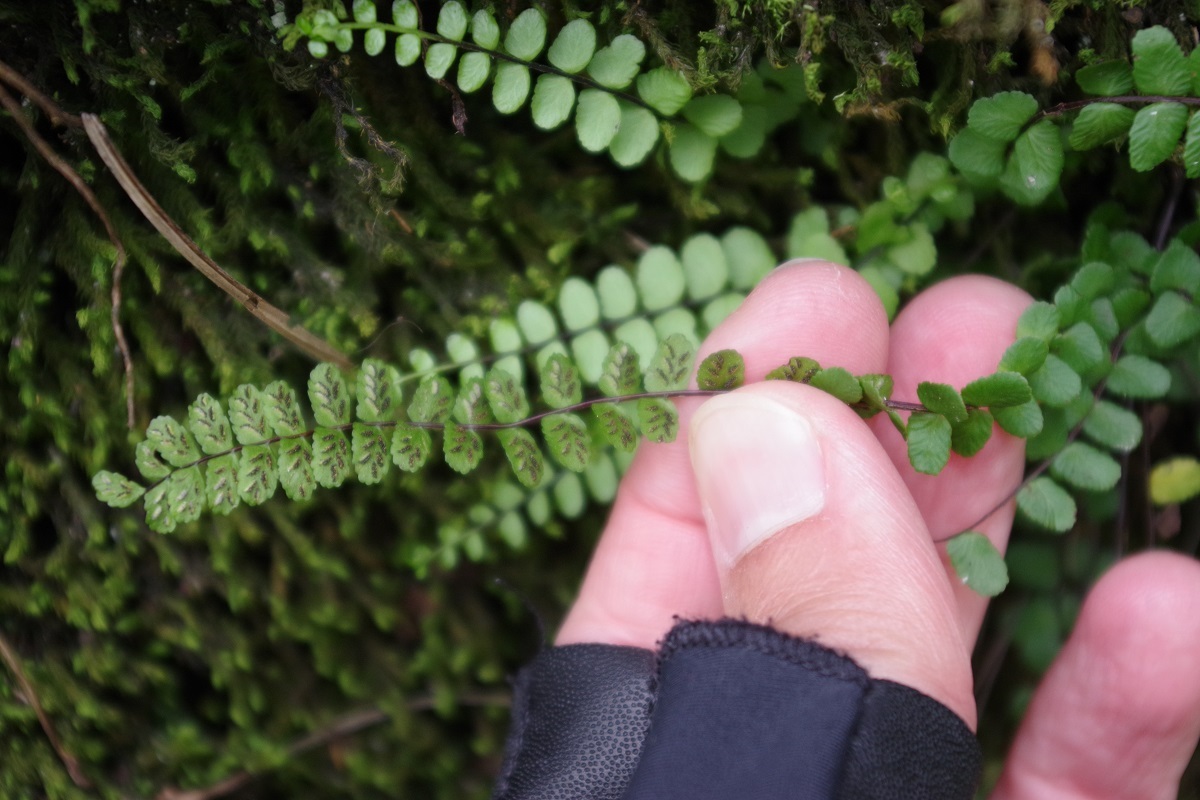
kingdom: Plantae
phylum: Tracheophyta
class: Polypodiopsida
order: Polypodiales
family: Aspleniaceae
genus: Asplenium
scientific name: Asplenium trichomanes
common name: Maidenhair spleenwort
